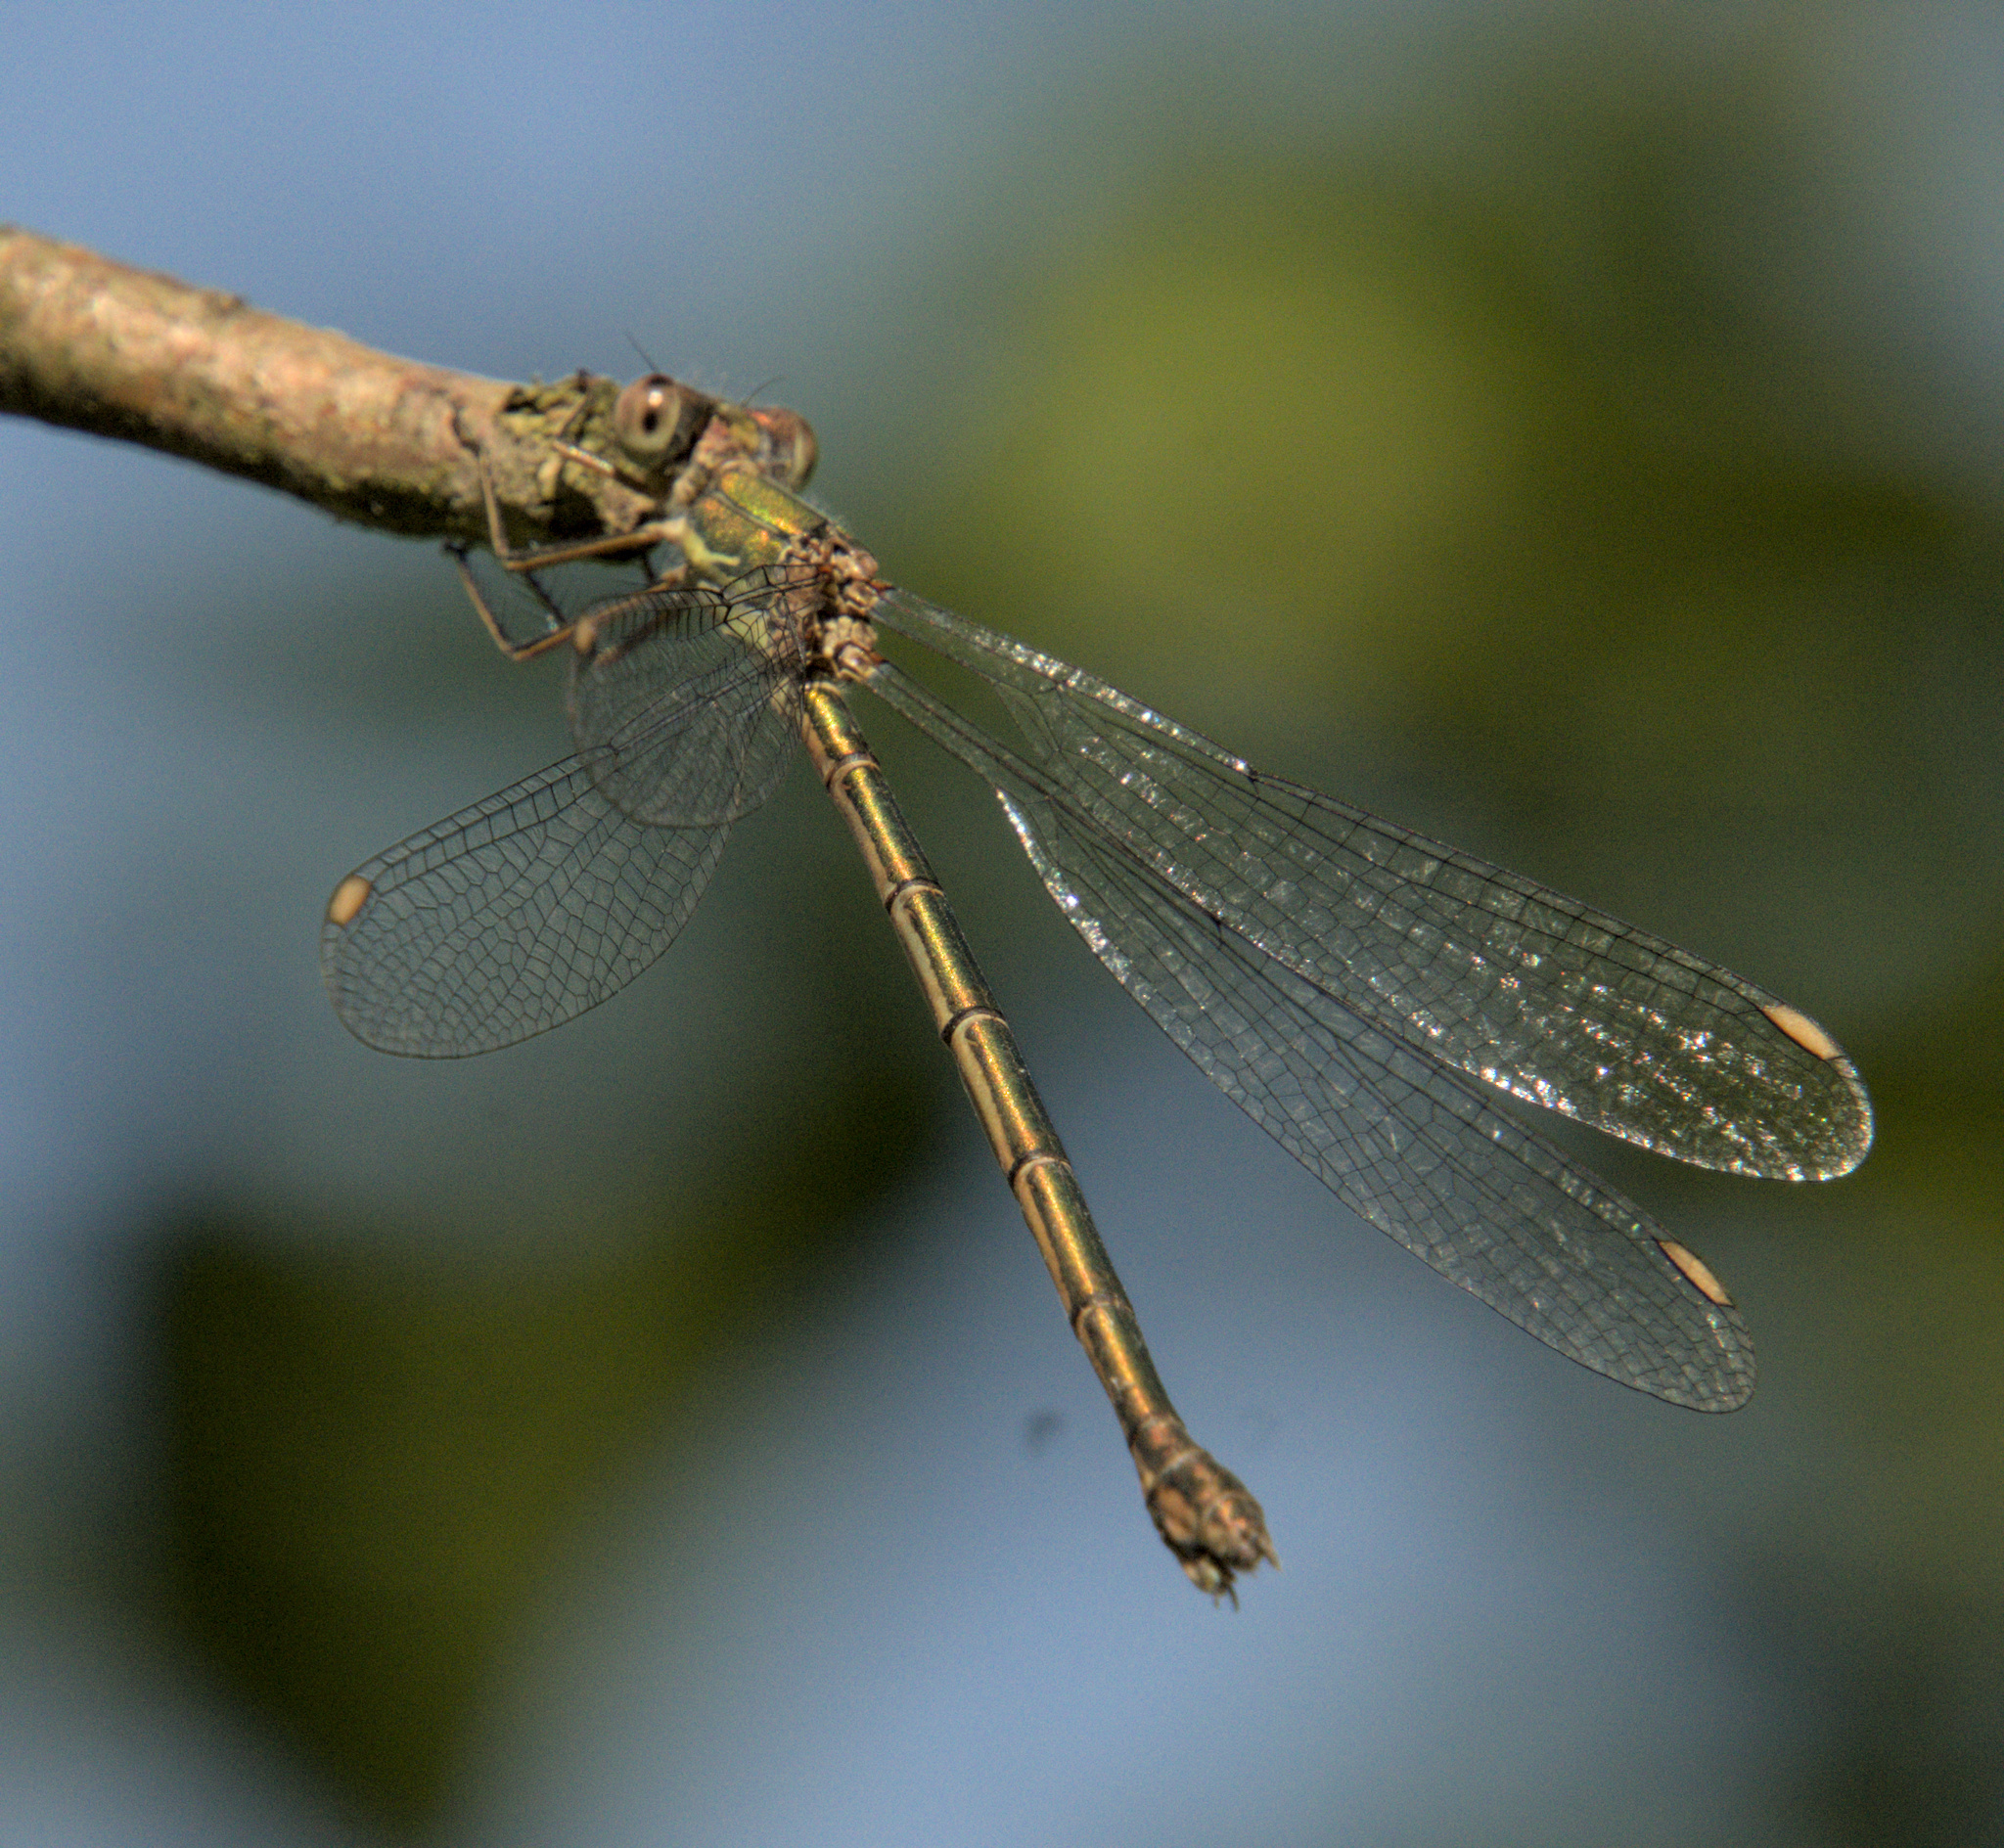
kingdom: Animalia
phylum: Arthropoda
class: Insecta
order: Odonata
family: Lestidae
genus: Chalcolestes
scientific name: Chalcolestes viridis
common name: Green emerald damselfly
